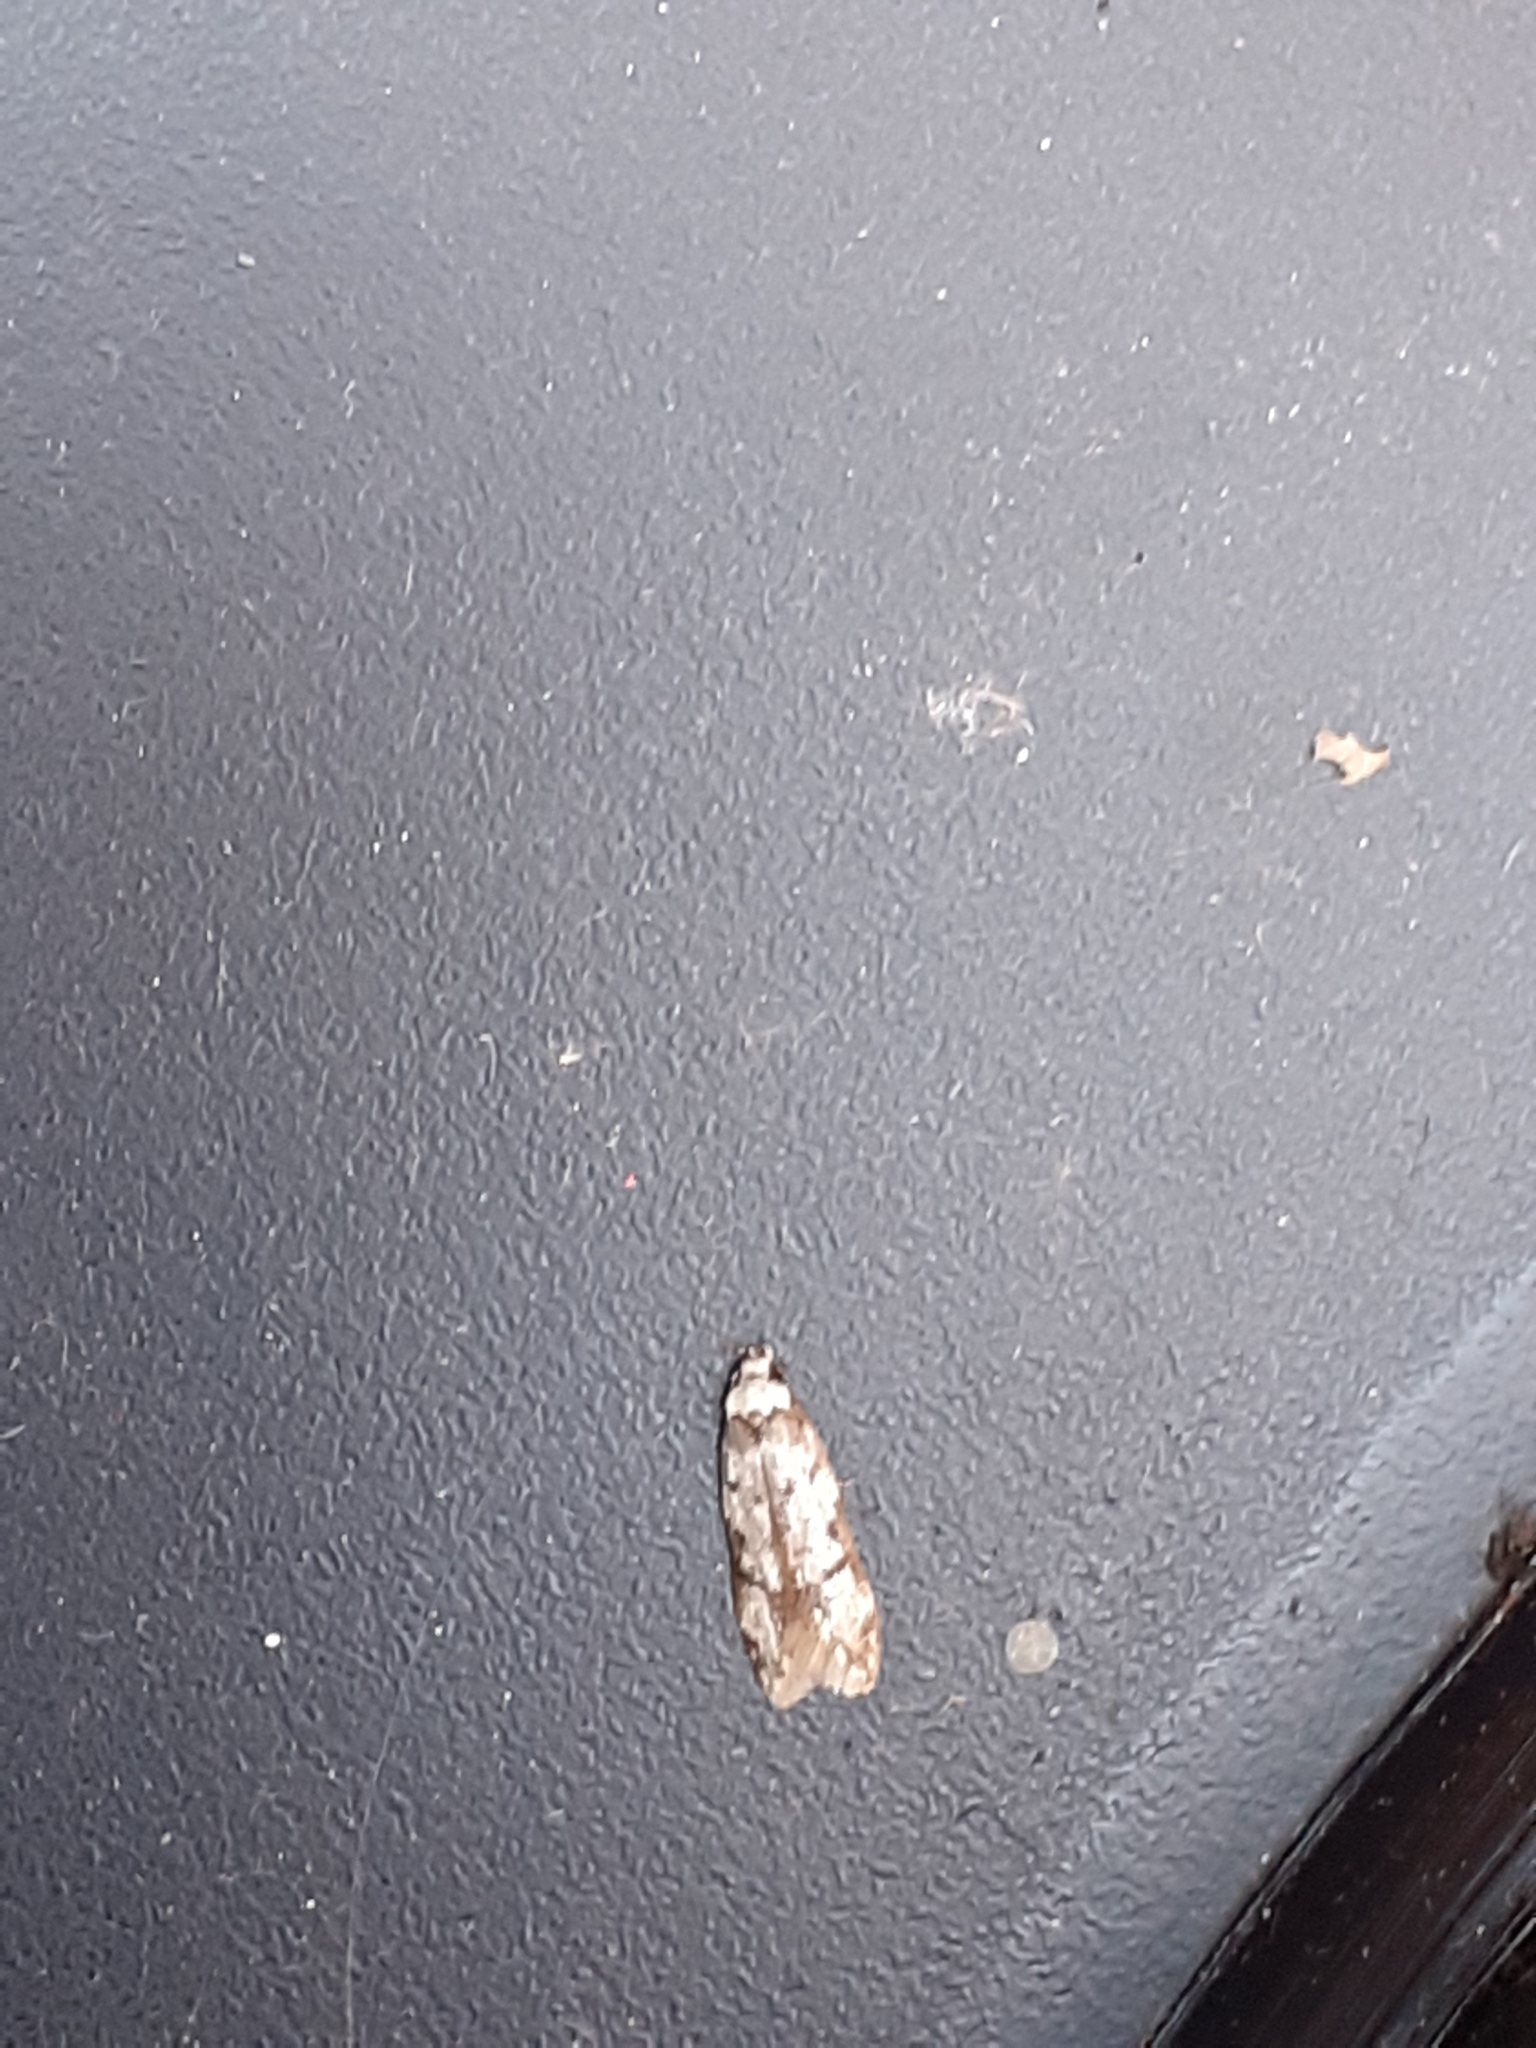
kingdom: Animalia
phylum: Arthropoda
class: Insecta
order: Lepidoptera
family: Oecophoridae
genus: Endrosis
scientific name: Endrosis sarcitrella
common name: White-shouldered house moth
